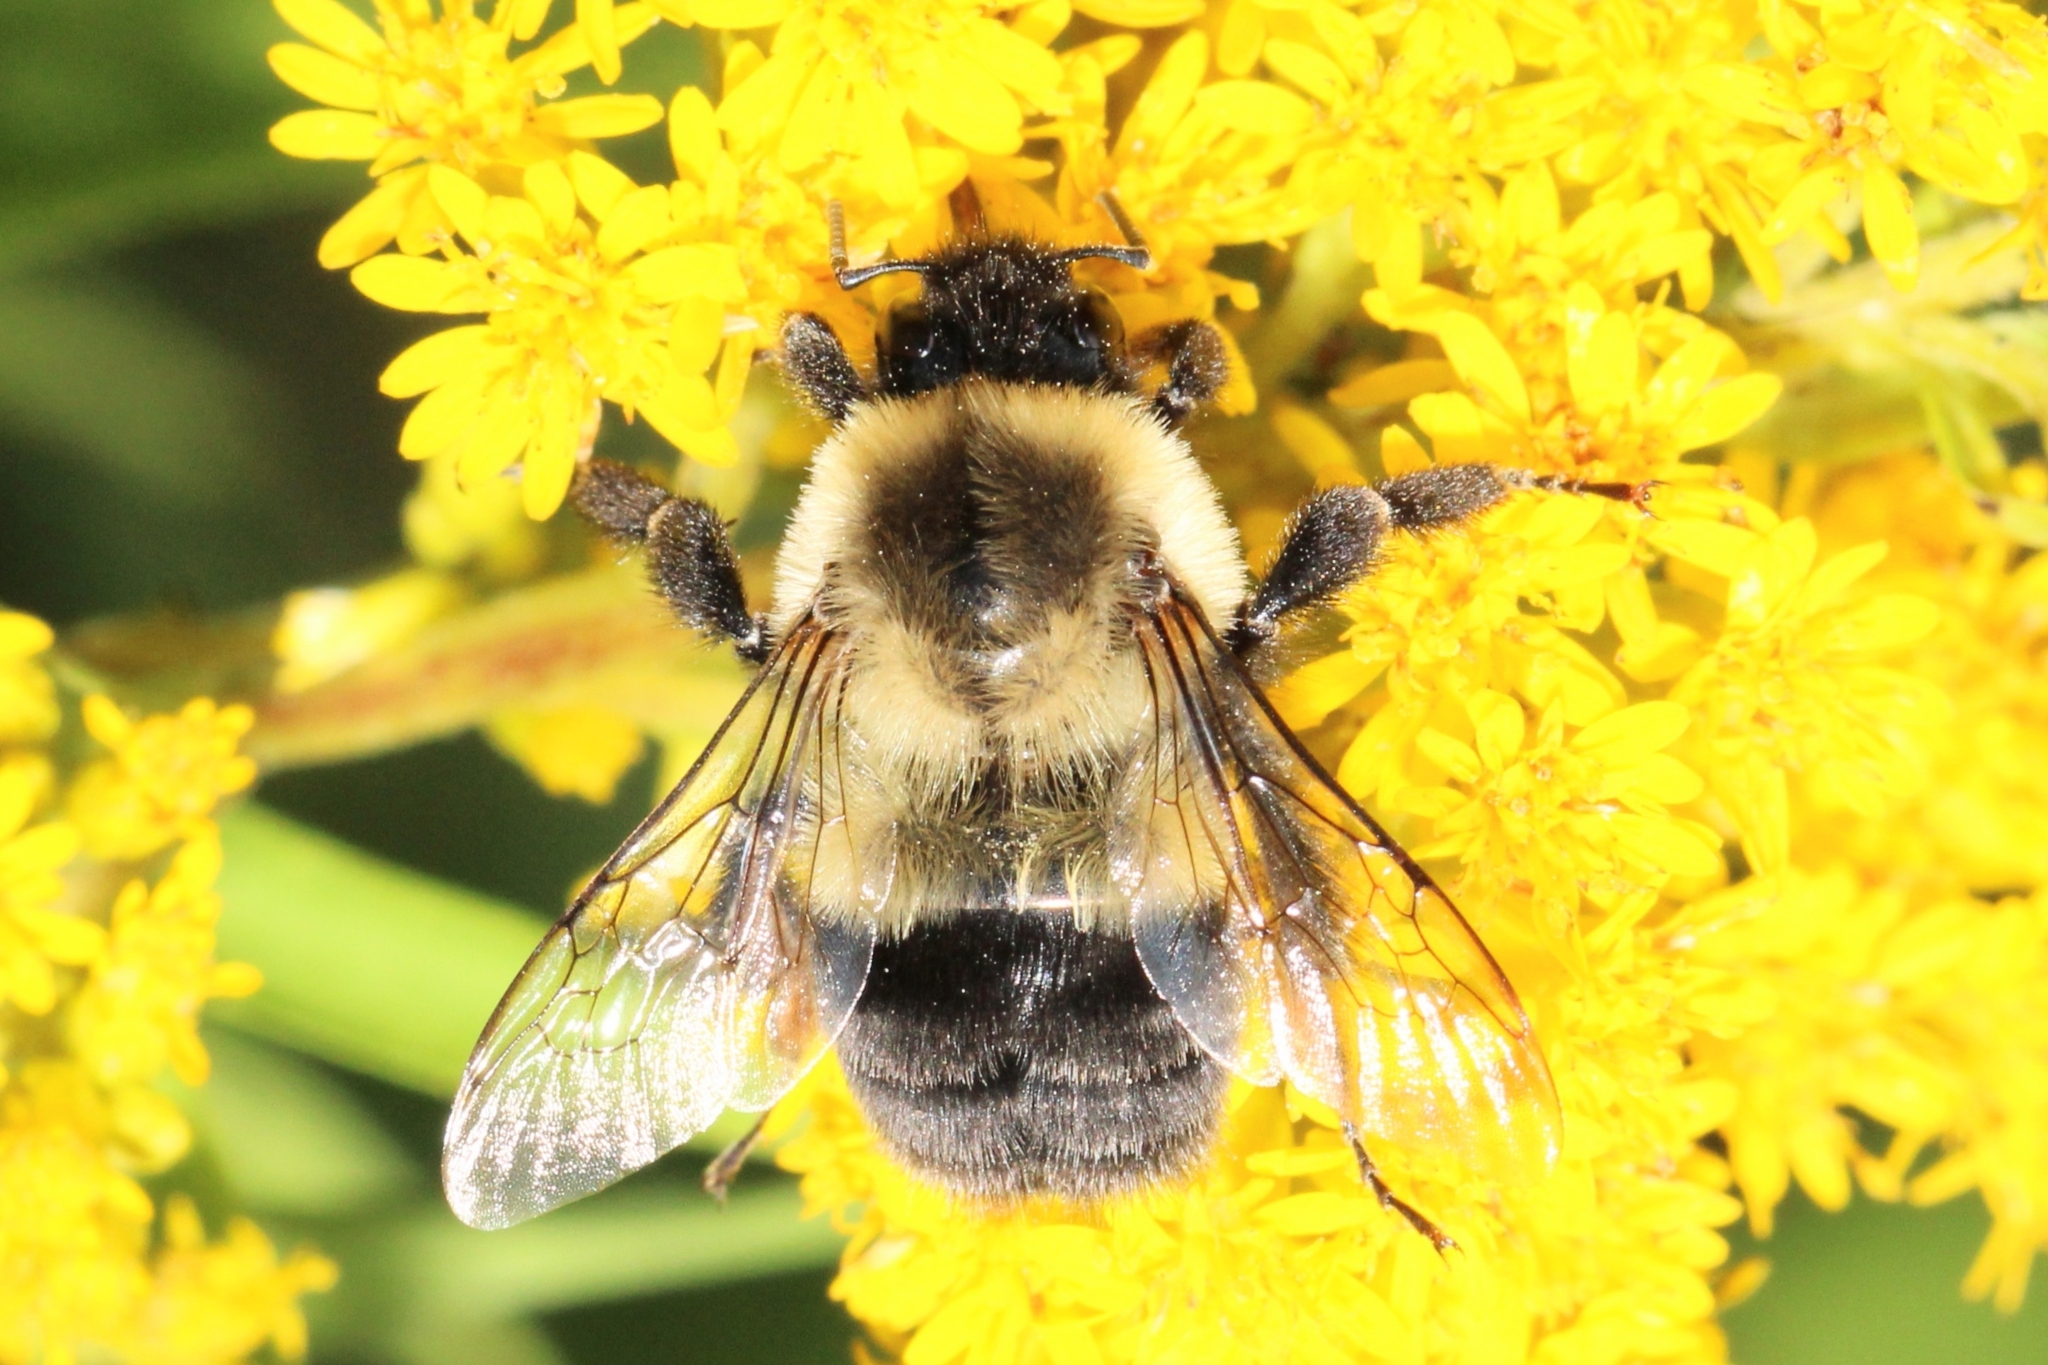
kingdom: Animalia
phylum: Arthropoda
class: Insecta
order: Hymenoptera
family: Apidae
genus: Bombus
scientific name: Bombus impatiens
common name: Common eastern bumble bee
